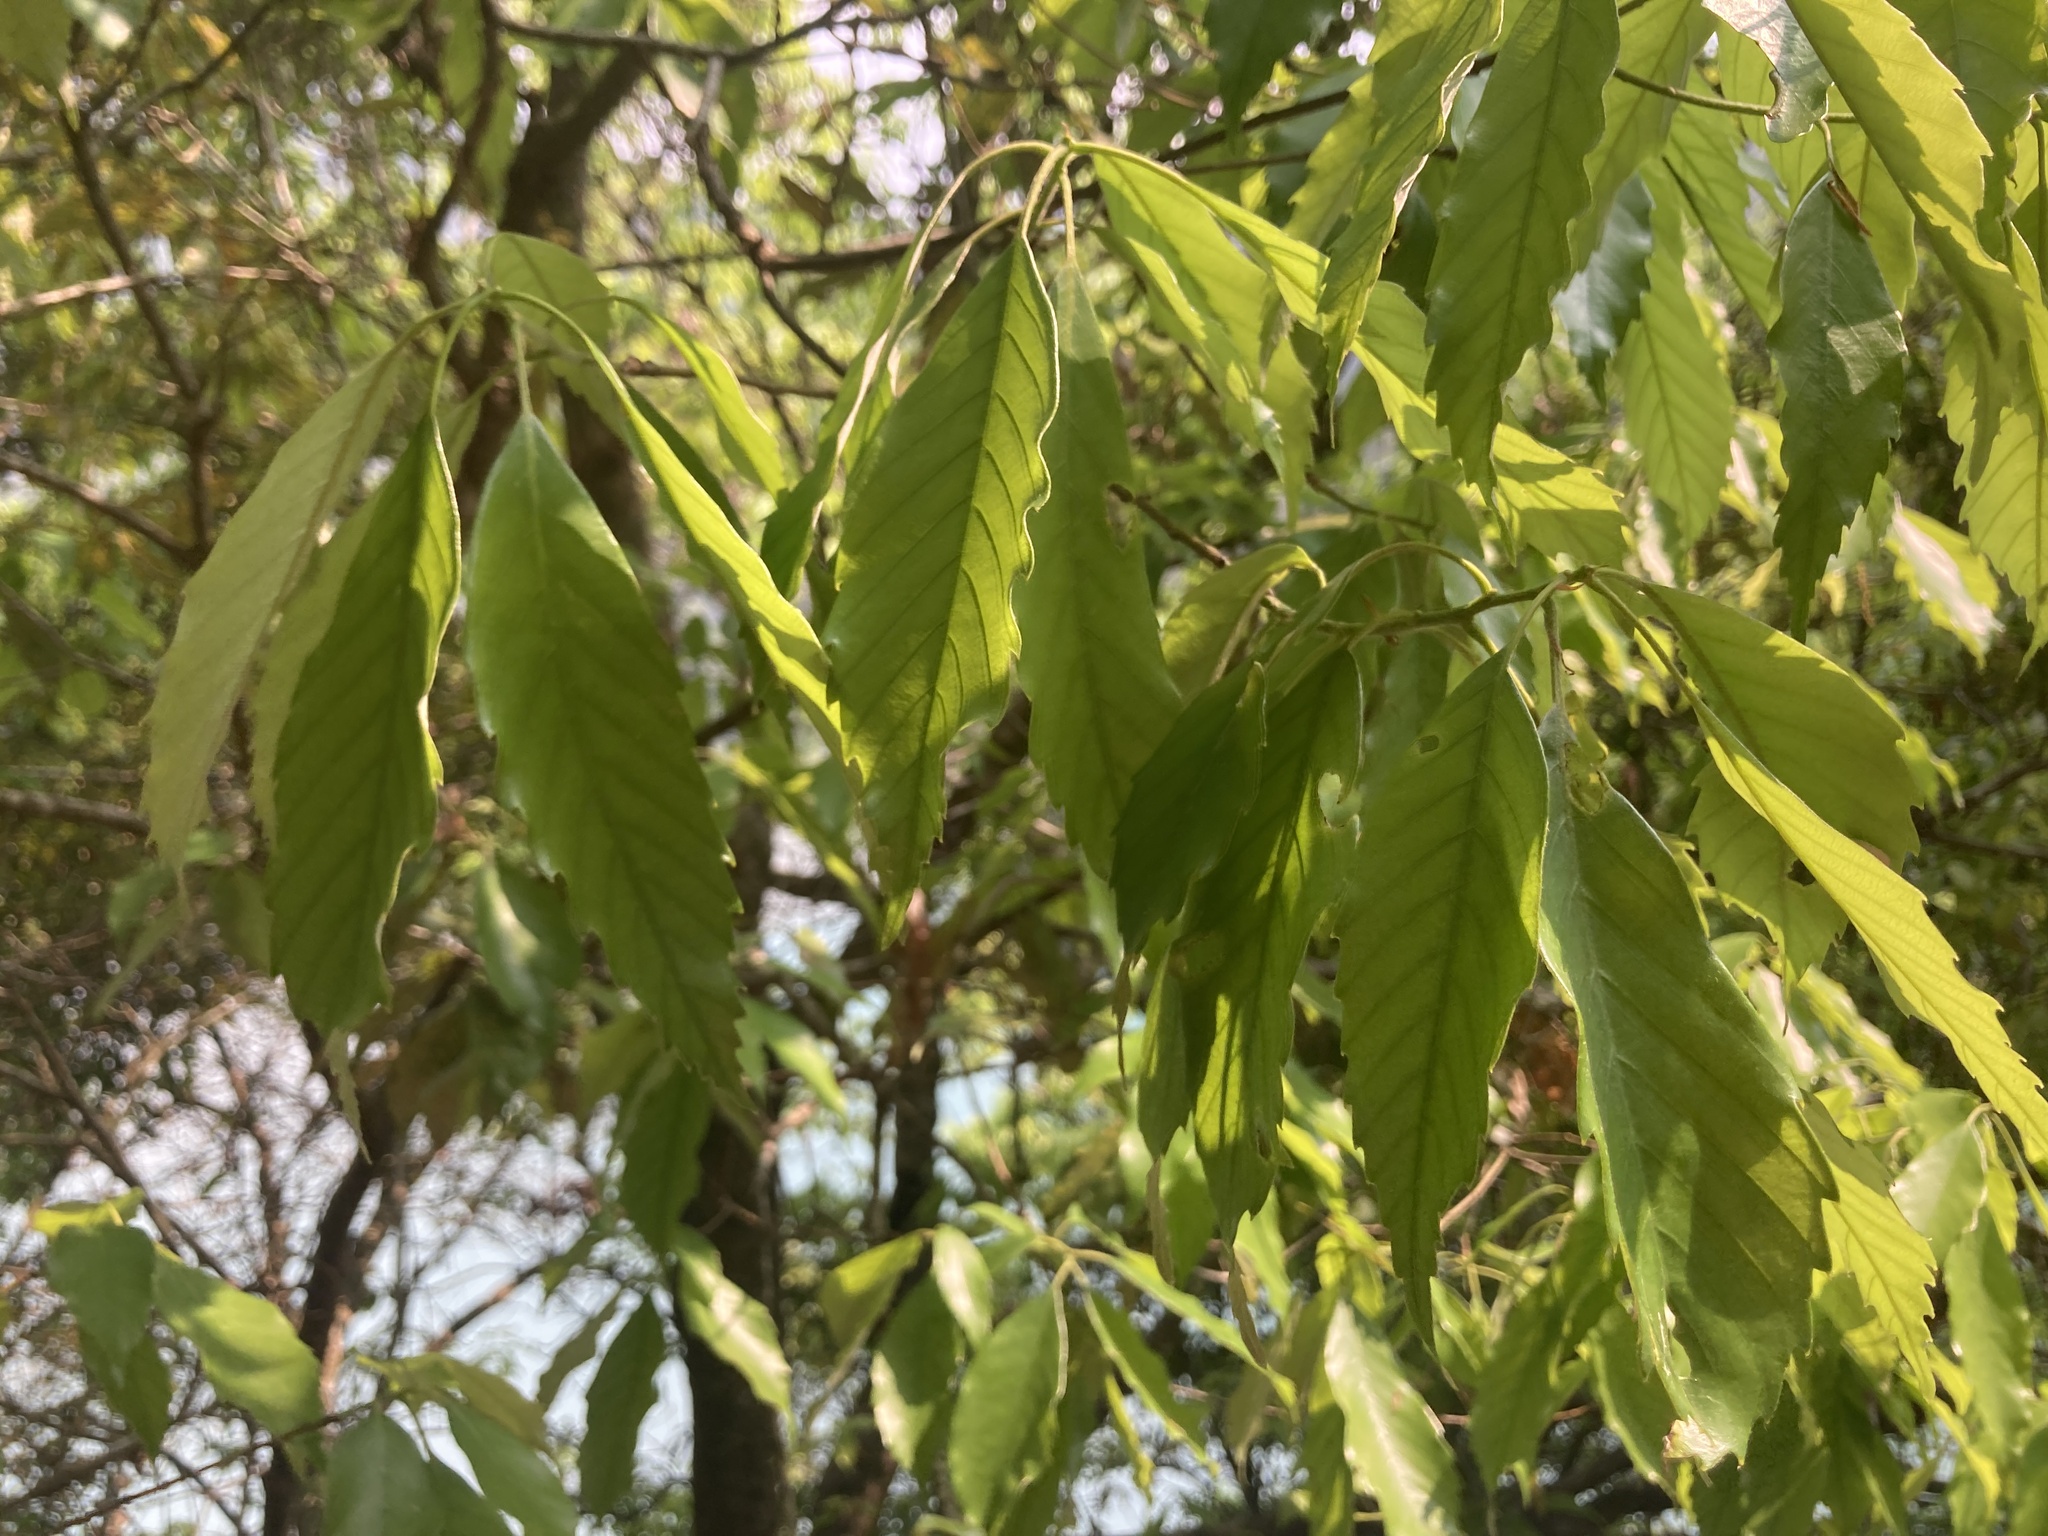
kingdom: Plantae
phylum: Tracheophyta
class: Magnoliopsida
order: Fagales
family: Fagaceae
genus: Quercus
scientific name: Quercus glauca
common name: Ring-cup oak
